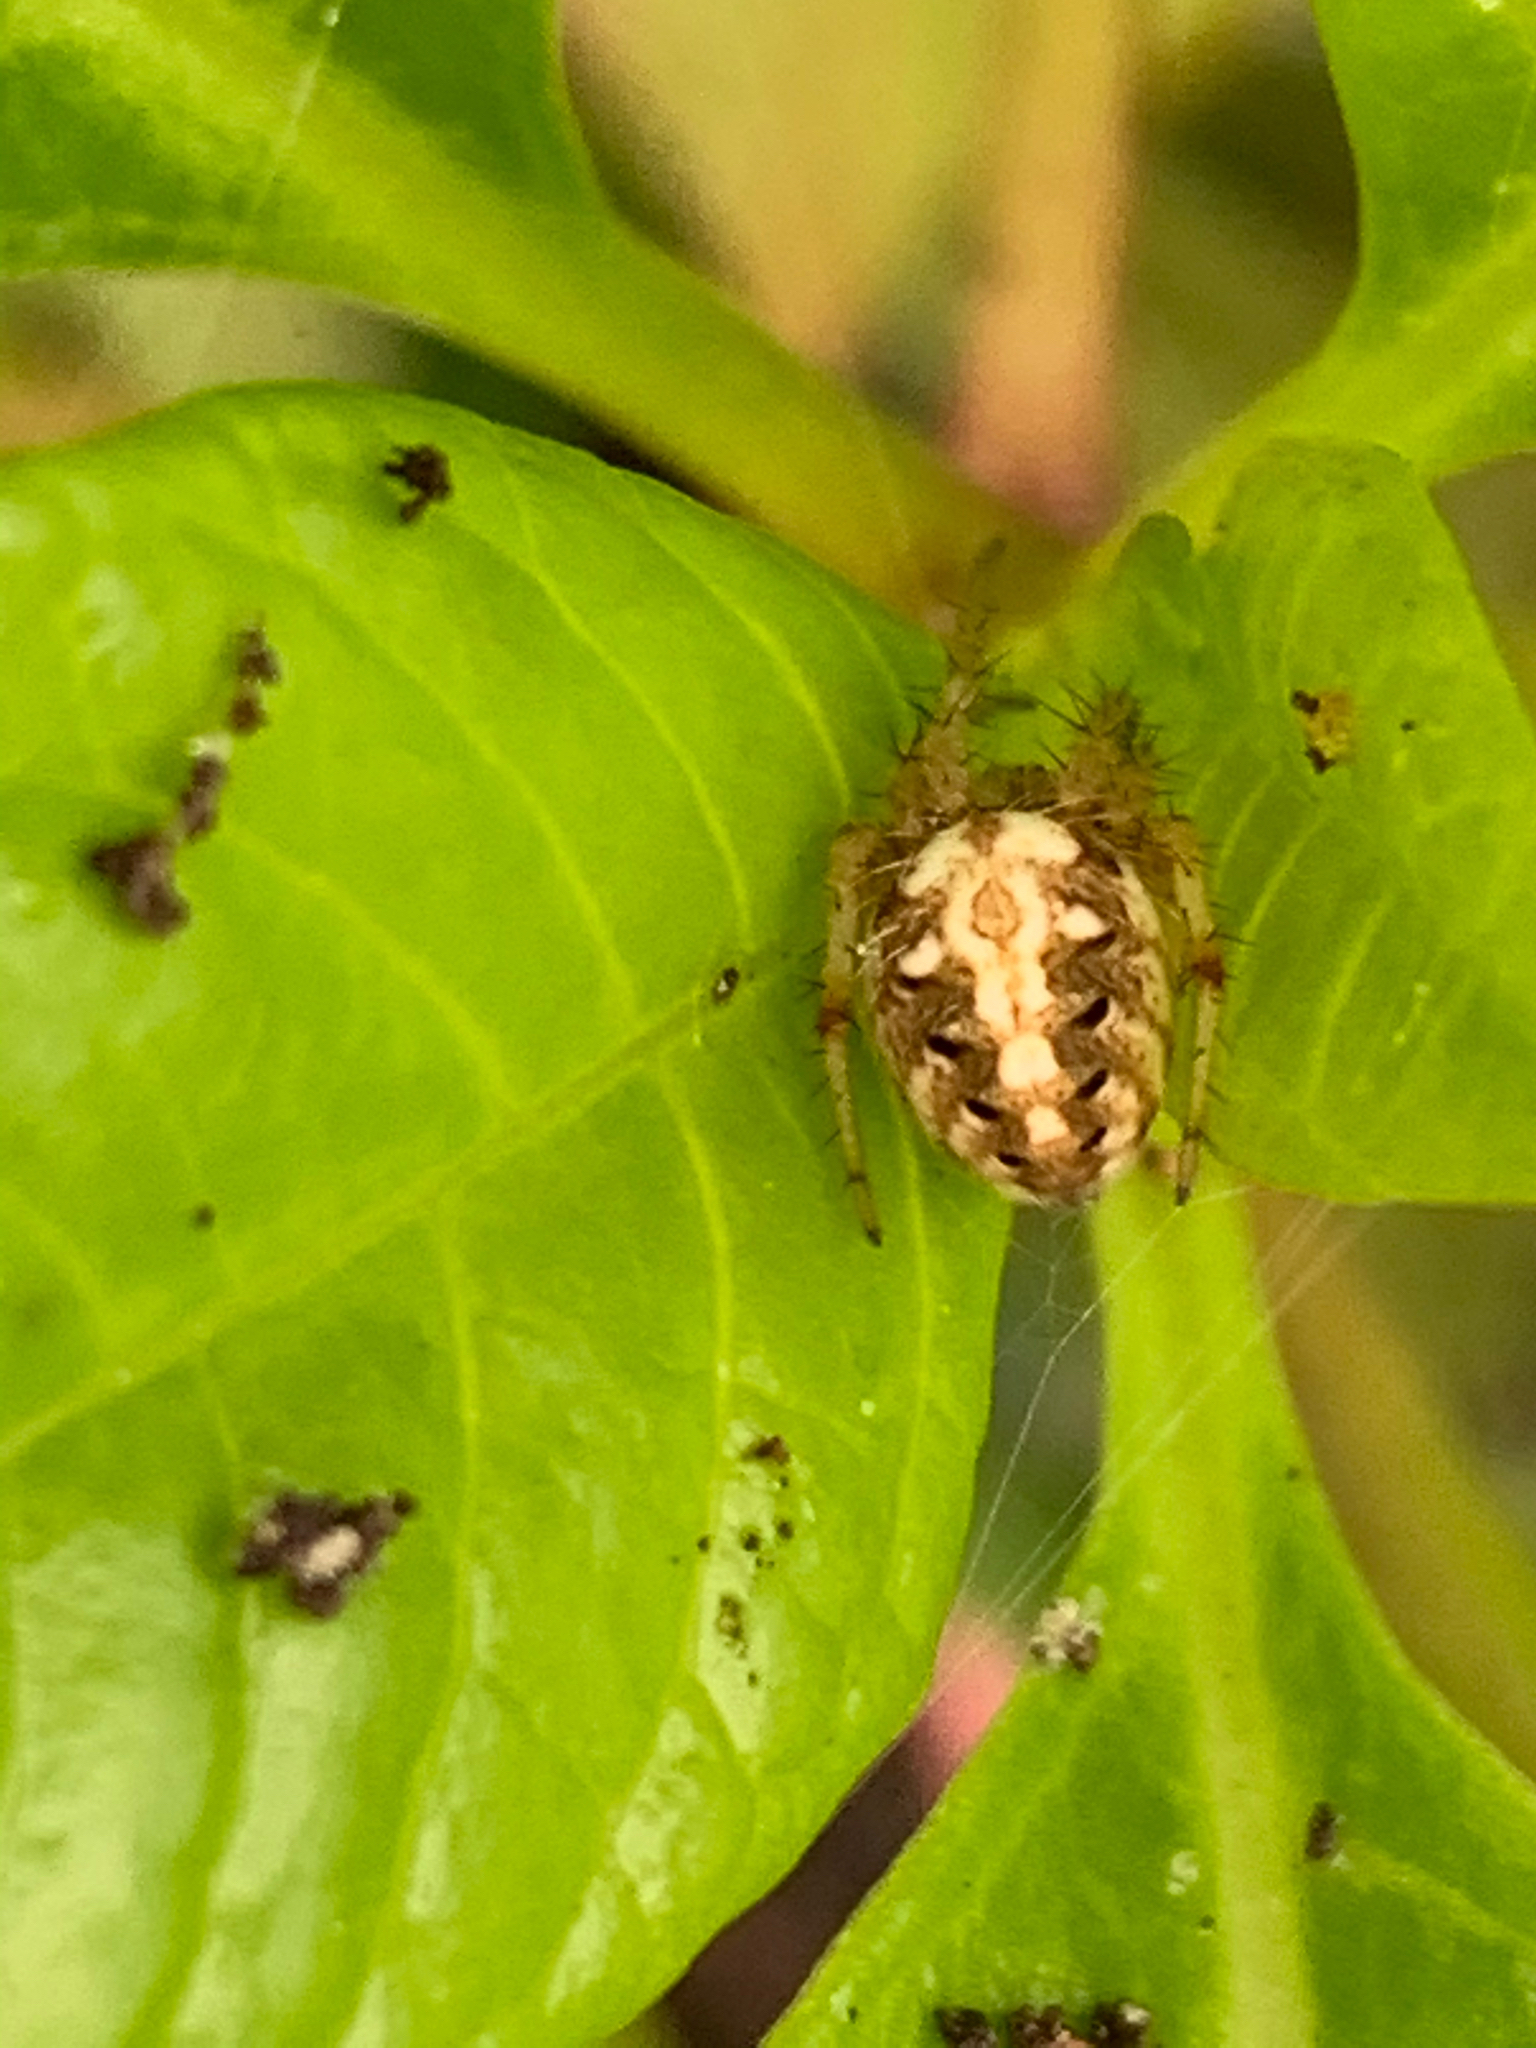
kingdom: Animalia
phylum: Arthropoda
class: Arachnida
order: Araneae
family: Araneidae
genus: Neoscona
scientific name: Neoscona arabesca
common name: Orb weavers
